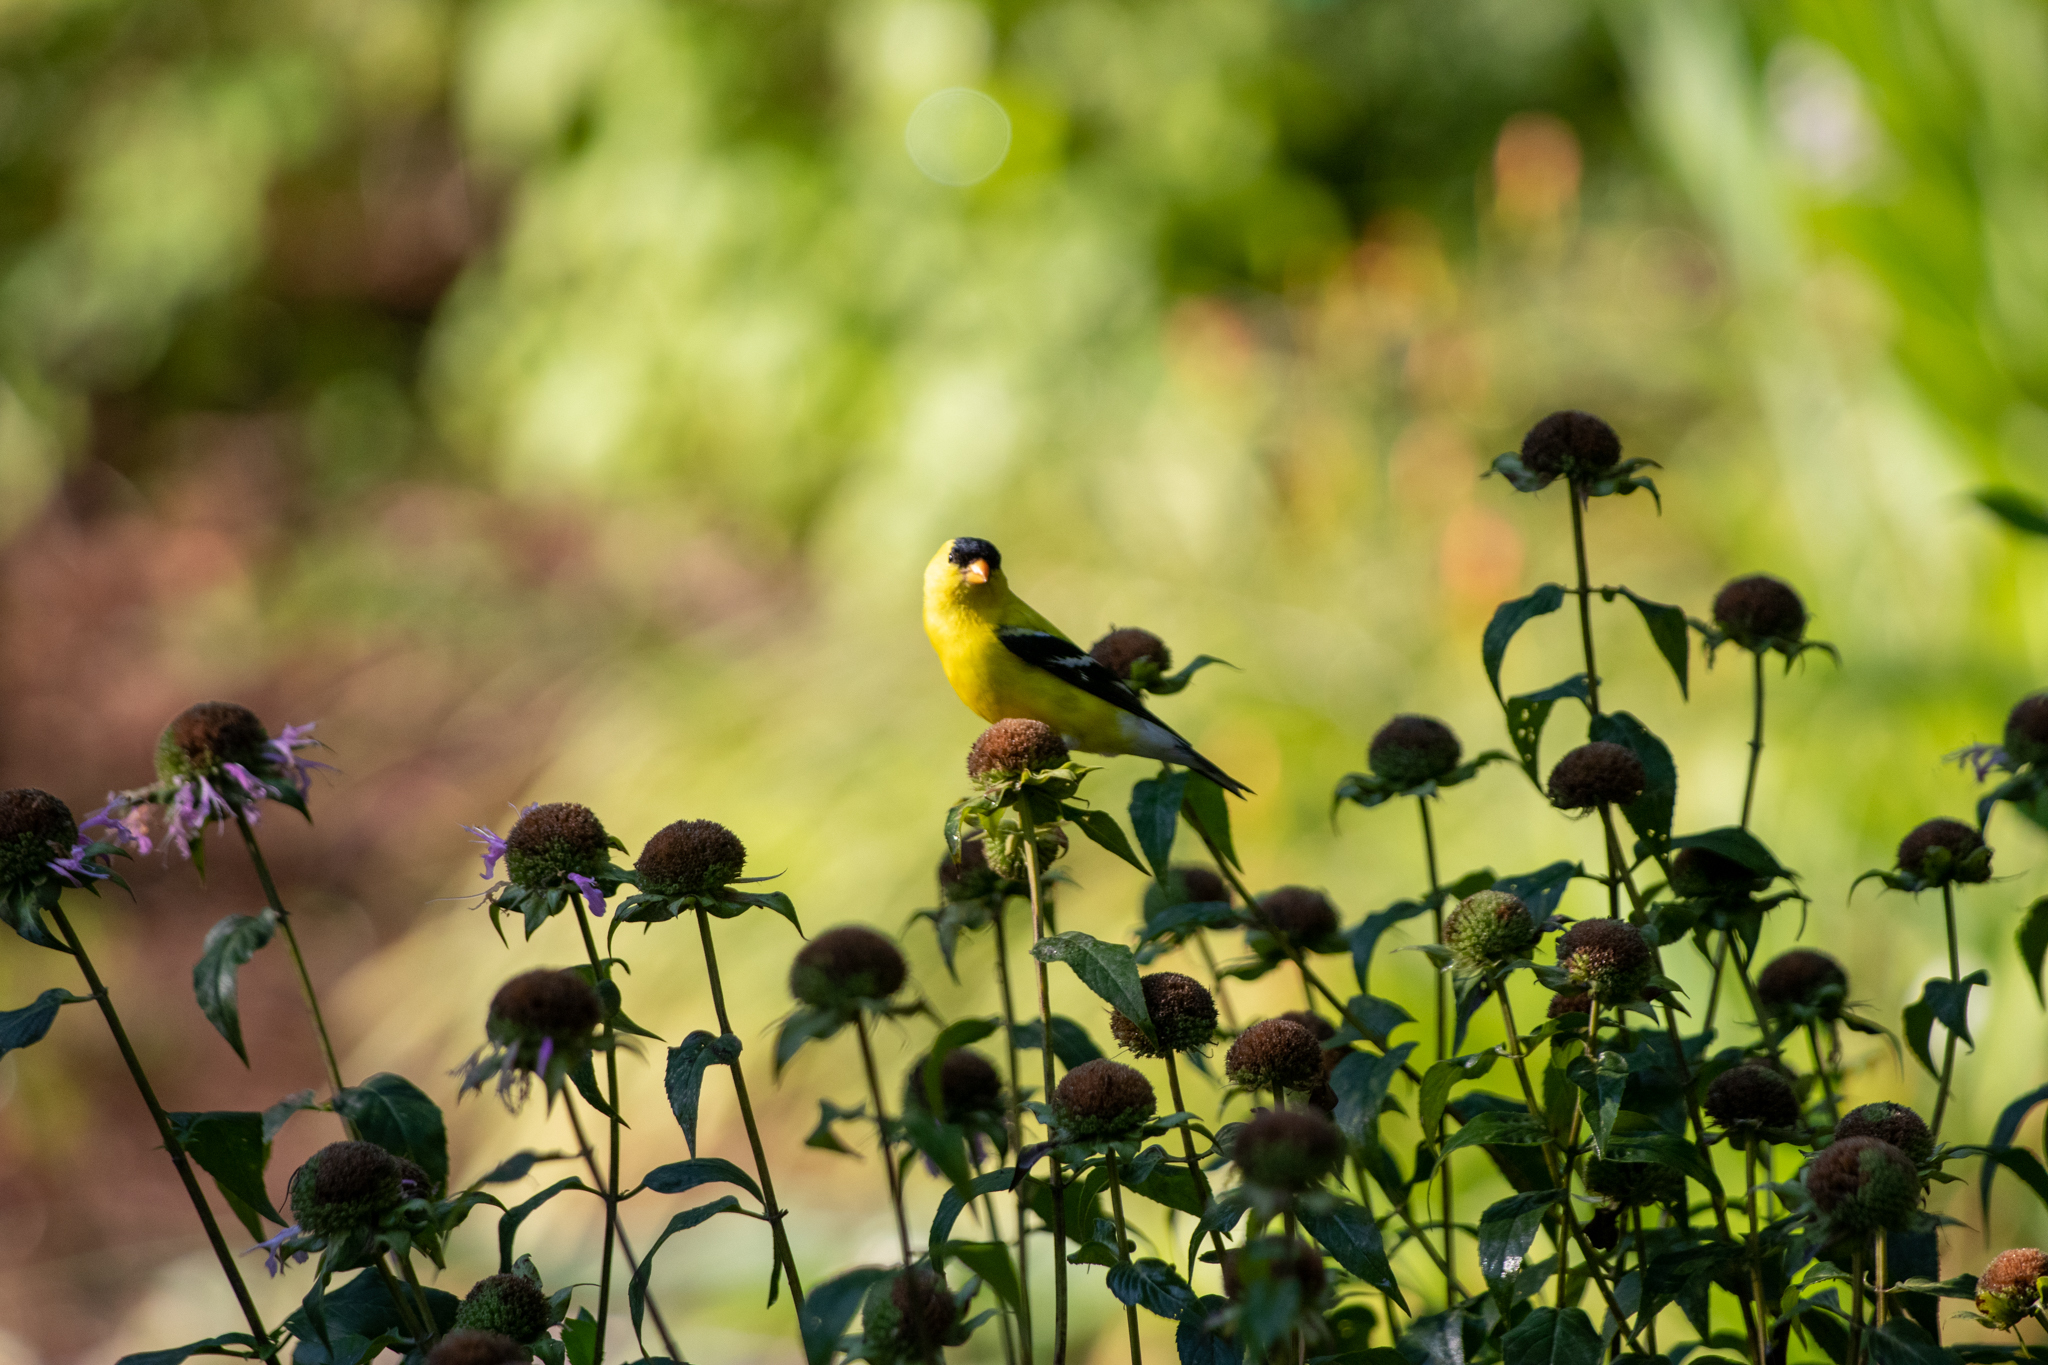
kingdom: Animalia
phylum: Chordata
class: Aves
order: Passeriformes
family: Fringillidae
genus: Spinus
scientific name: Spinus tristis
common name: American goldfinch
